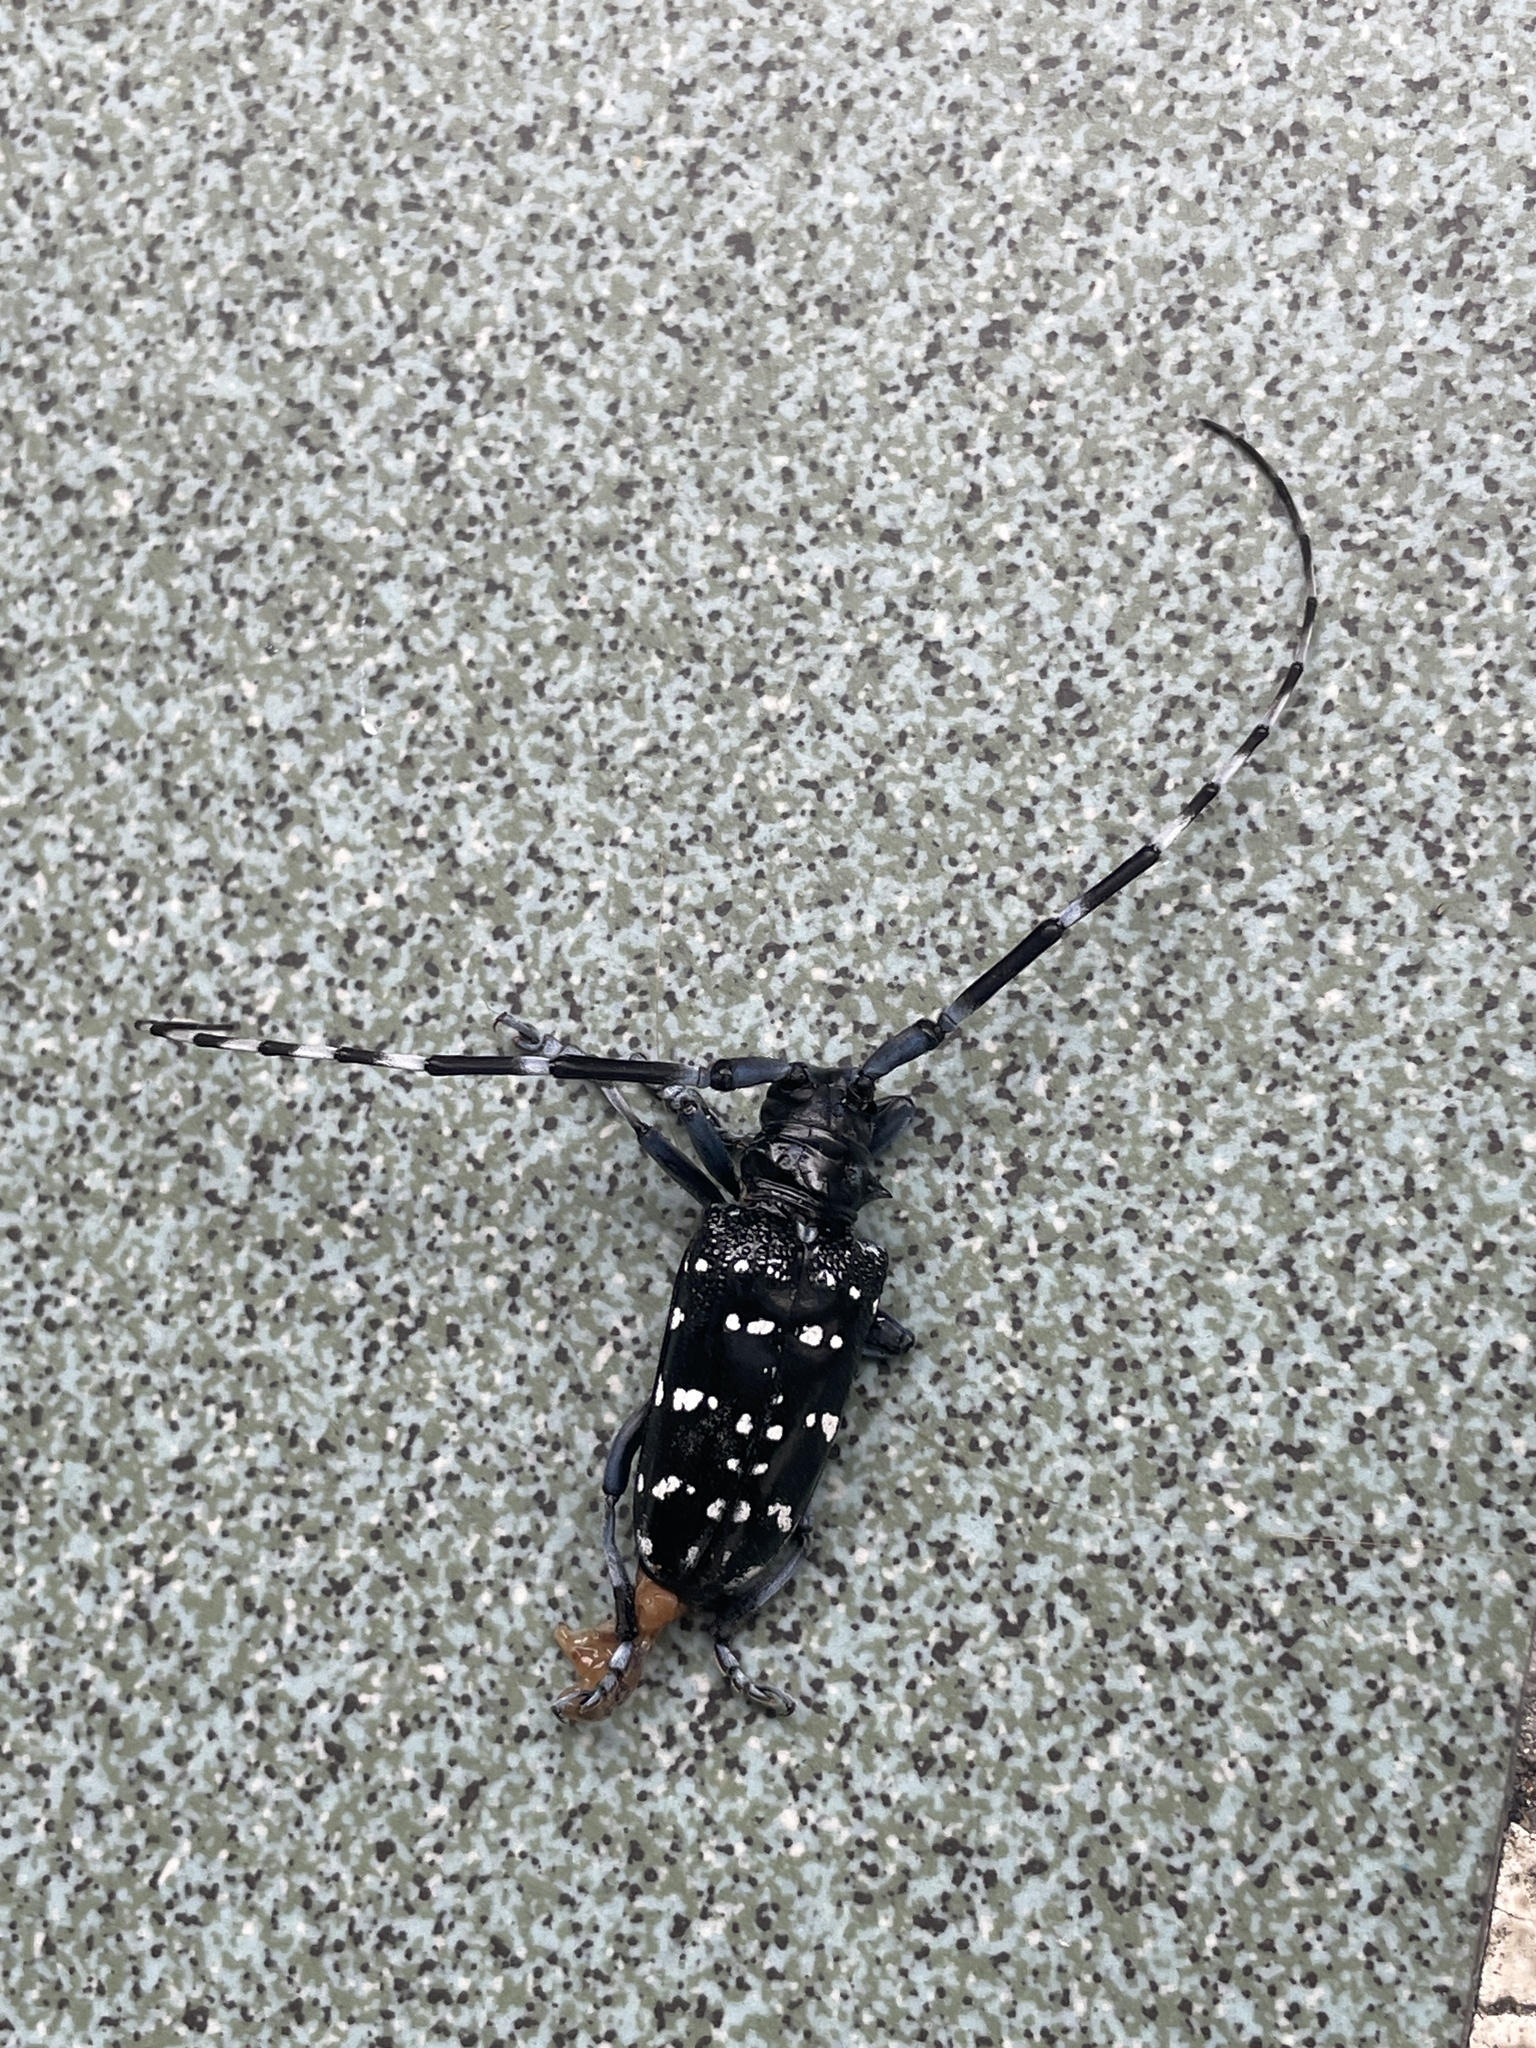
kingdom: Animalia
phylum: Arthropoda
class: Insecta
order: Coleoptera
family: Cerambycidae
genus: Anoplophora
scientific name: Anoplophora chinensis
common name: Citrus longhorned beetle
